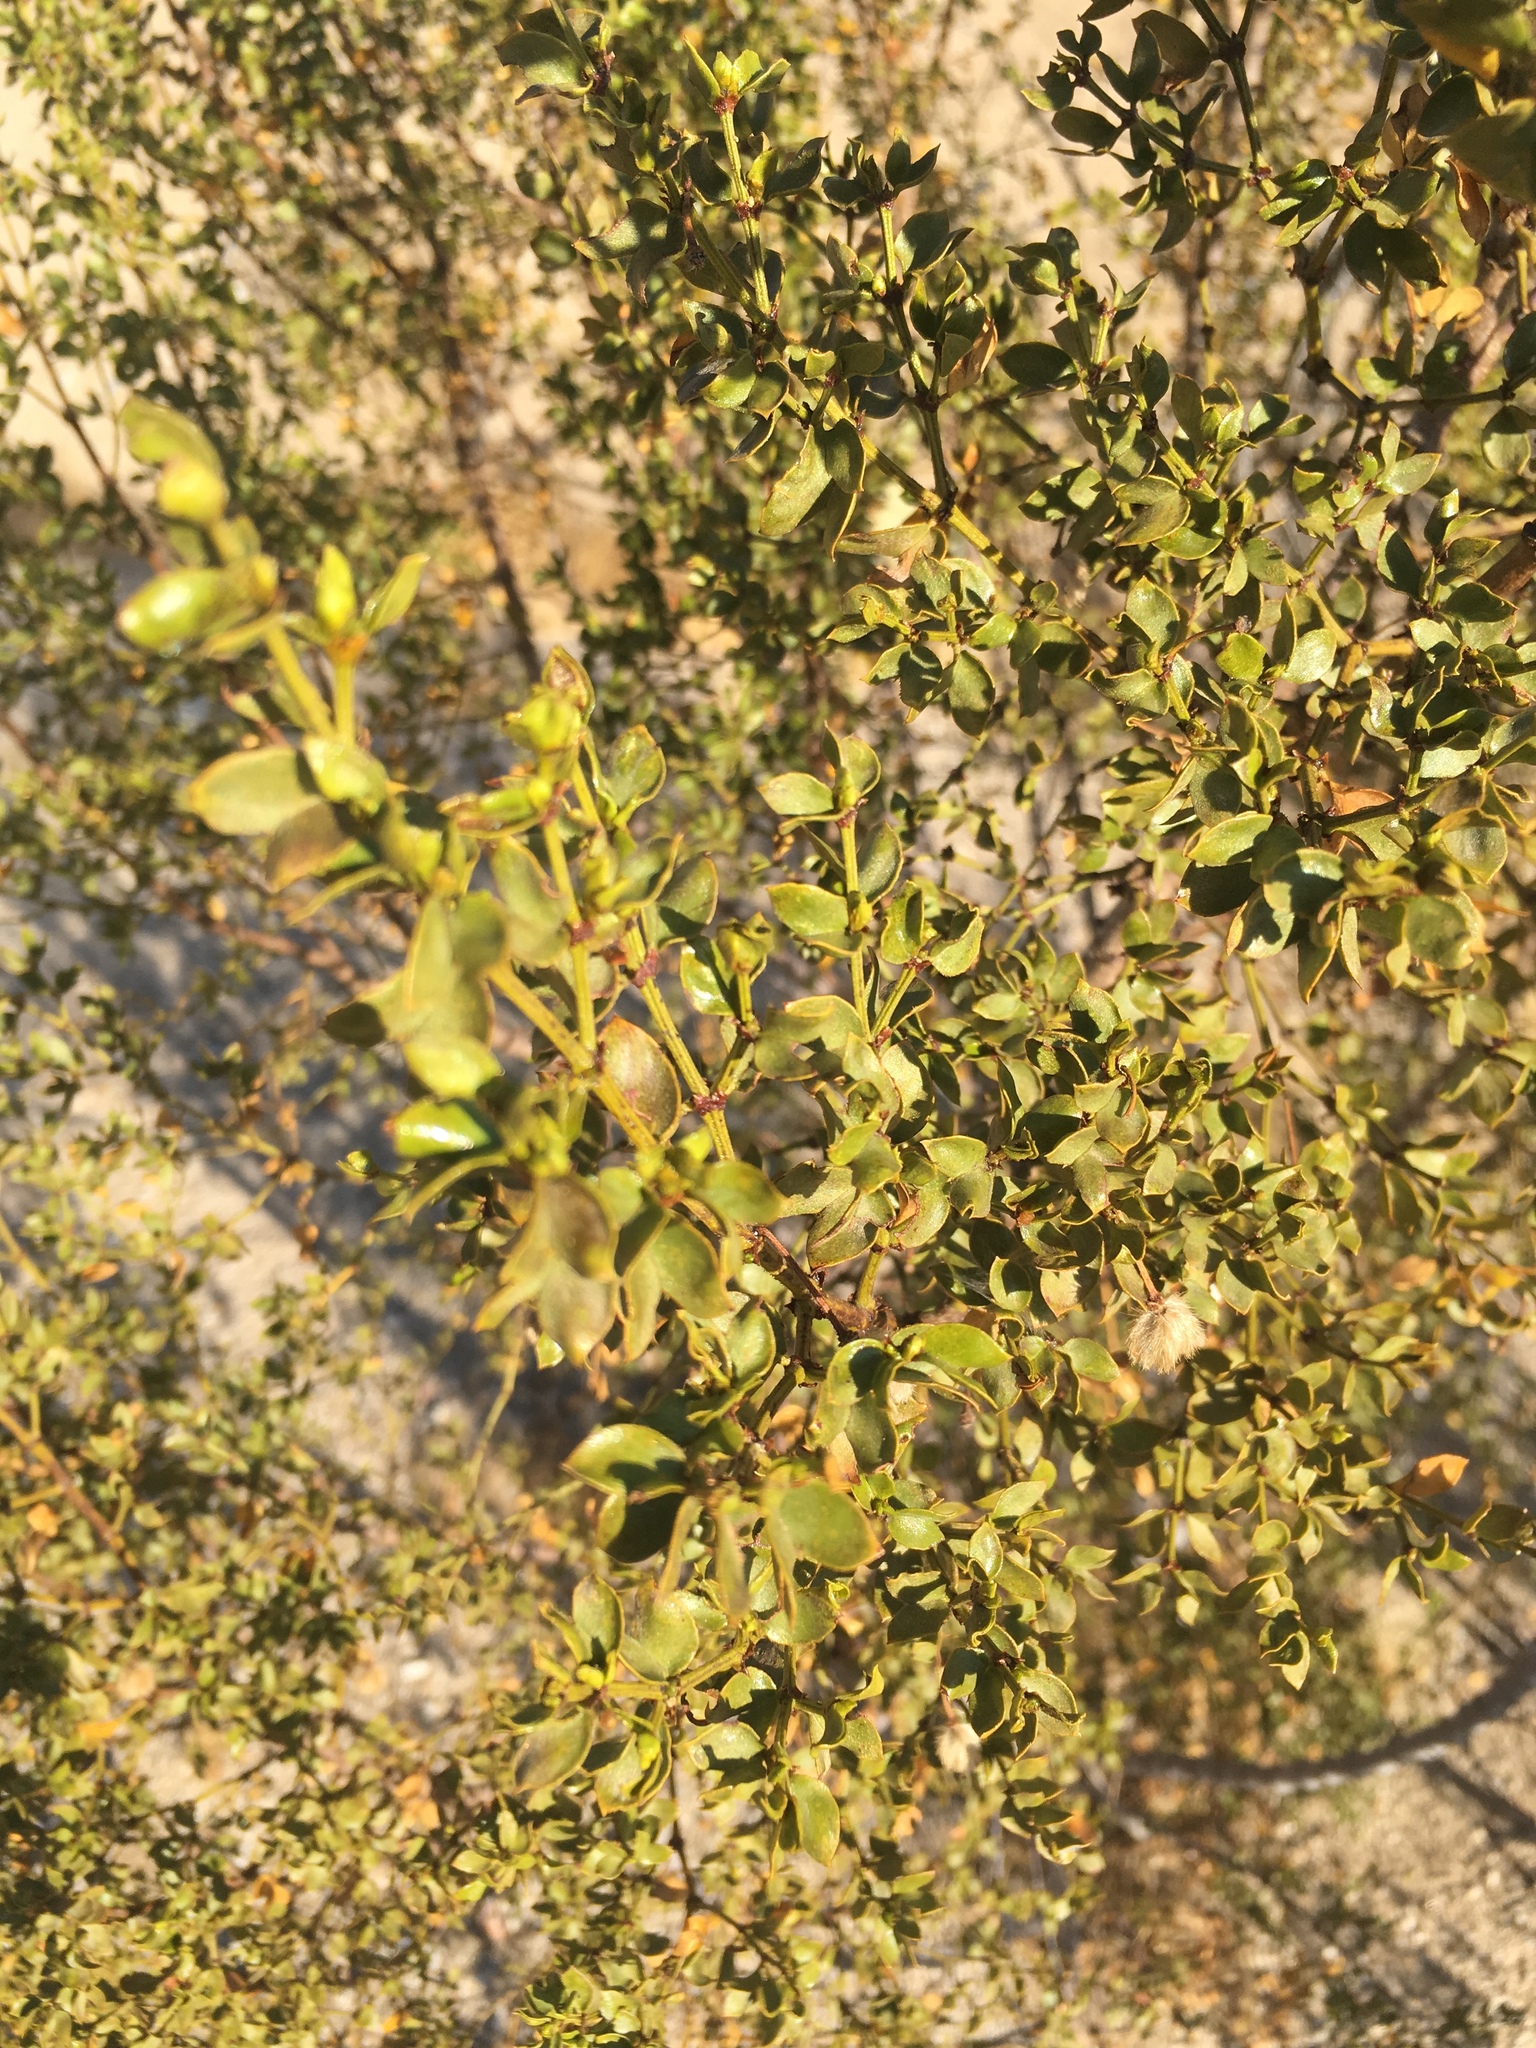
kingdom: Plantae
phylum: Tracheophyta
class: Magnoliopsida
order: Zygophyllales
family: Zygophyllaceae
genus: Larrea
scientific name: Larrea tridentata
